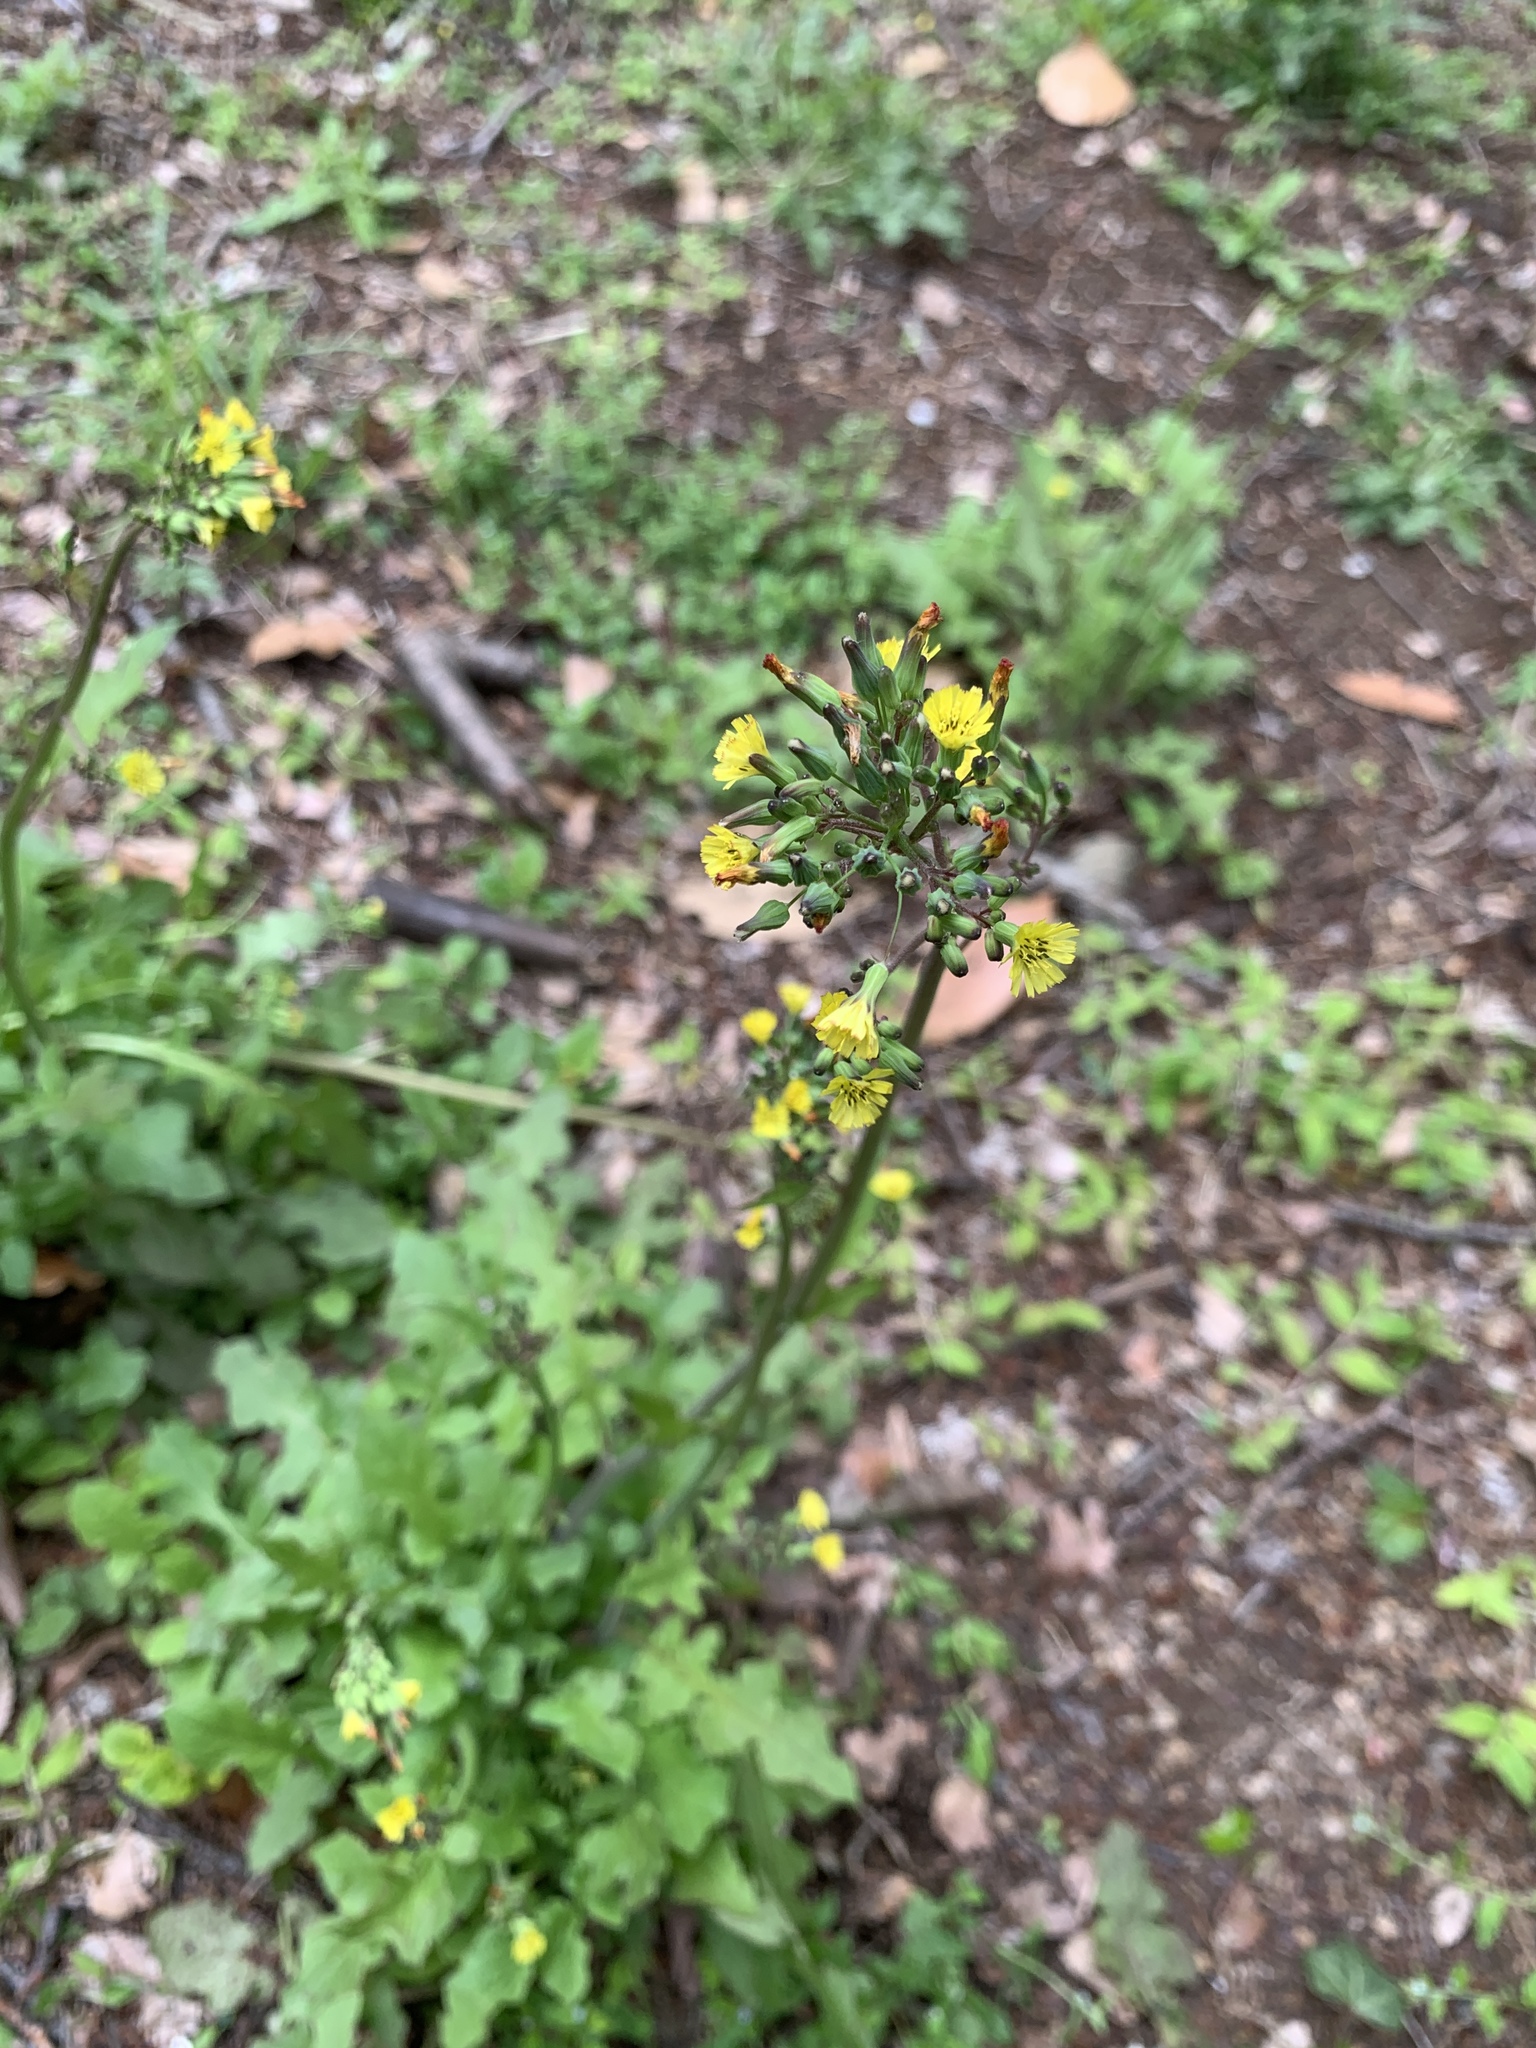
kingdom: Plantae
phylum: Tracheophyta
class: Magnoliopsida
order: Asterales
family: Asteraceae
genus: Youngia
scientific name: Youngia japonica
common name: Oriental false hawksbeard
